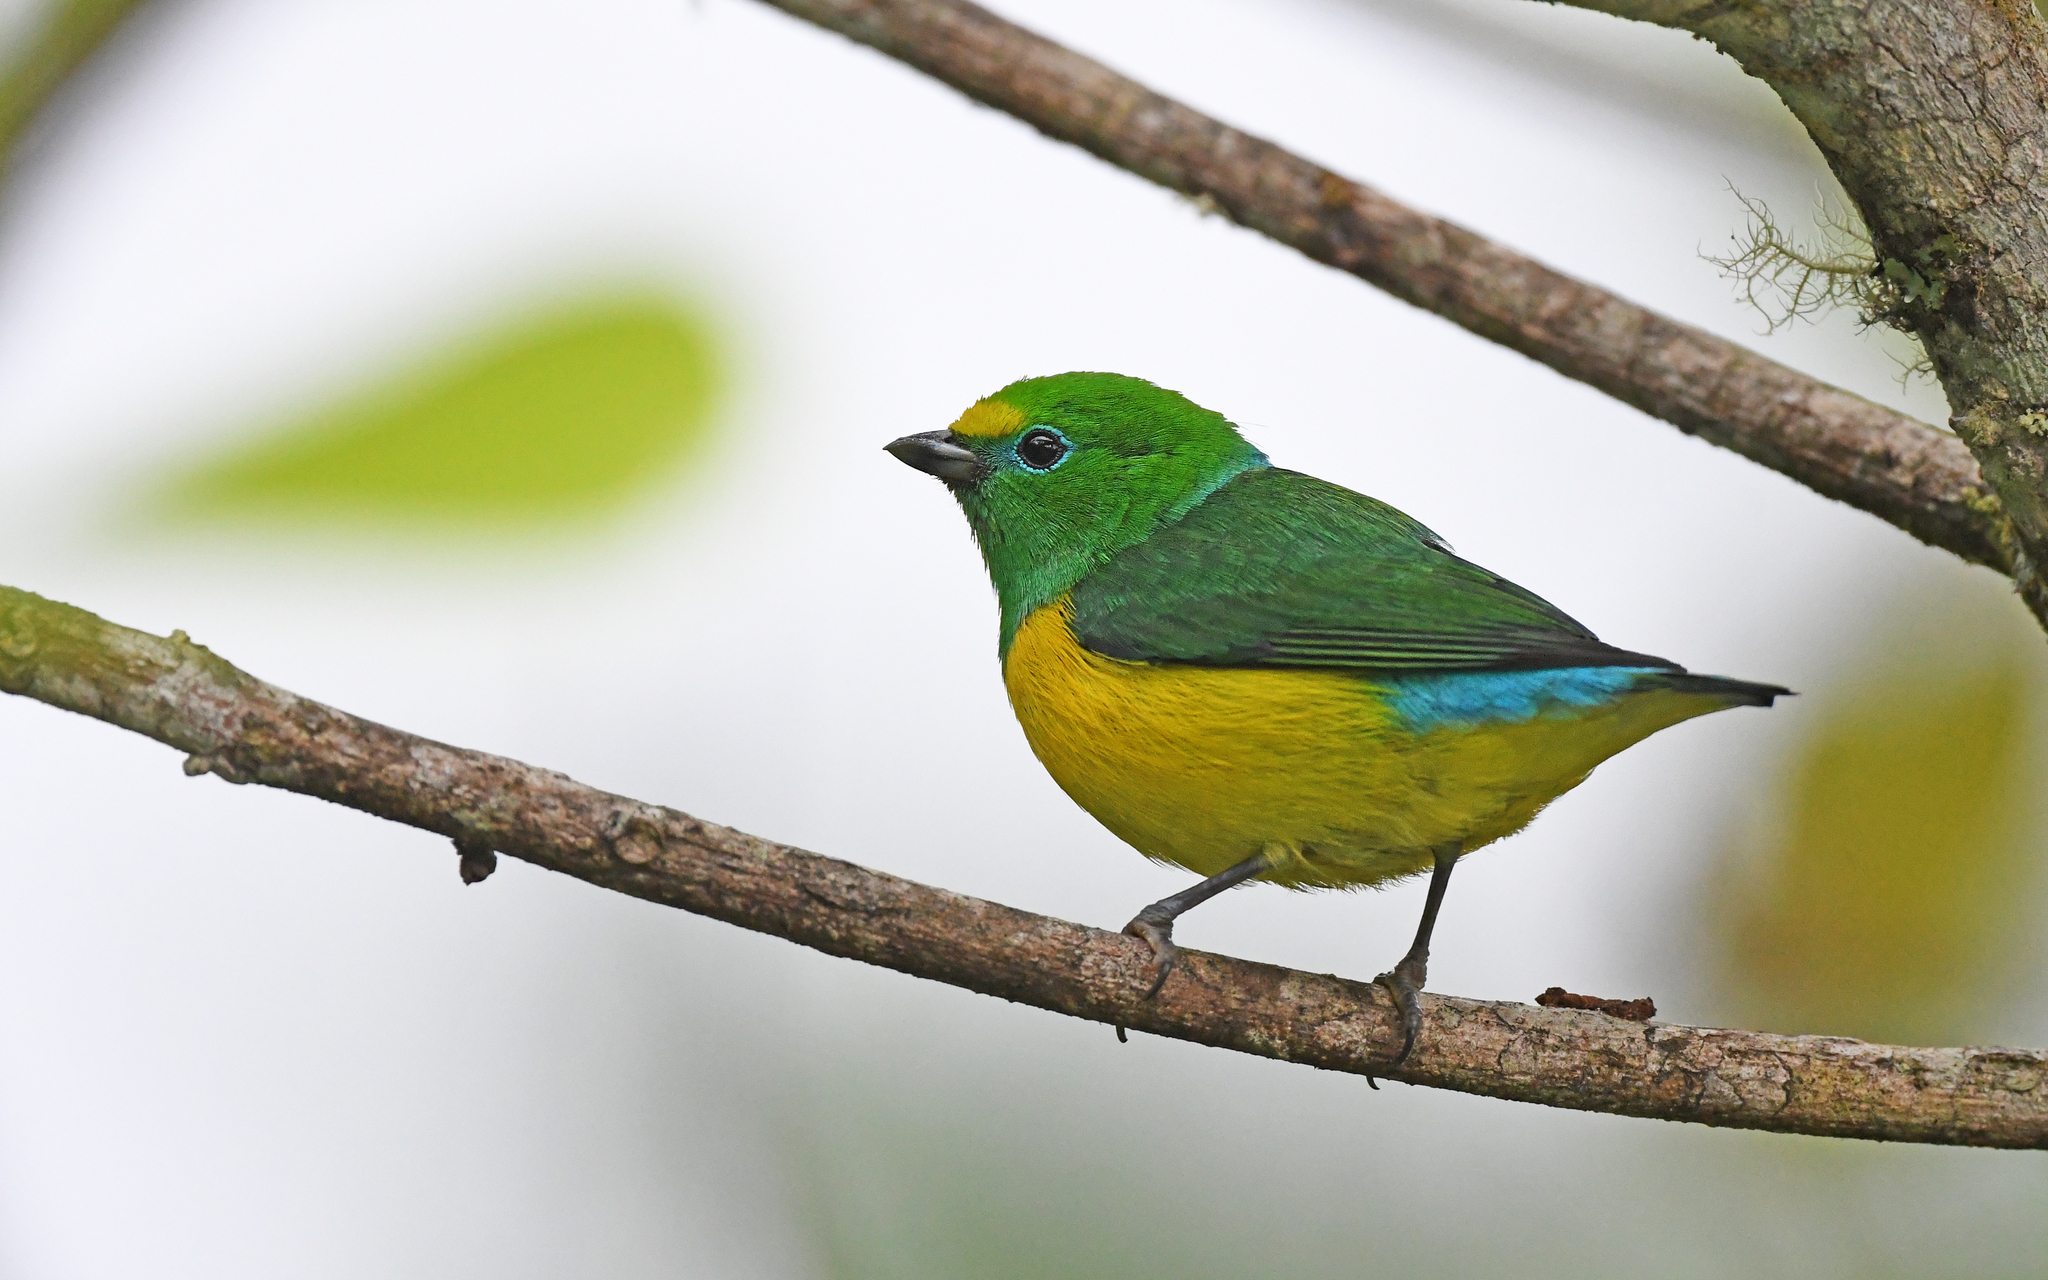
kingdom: Animalia
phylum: Chordata
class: Aves
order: Passeriformes
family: Fringillidae
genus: Chlorophonia
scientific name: Chlorophonia cyanea
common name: Blue-naped chlorophonia
